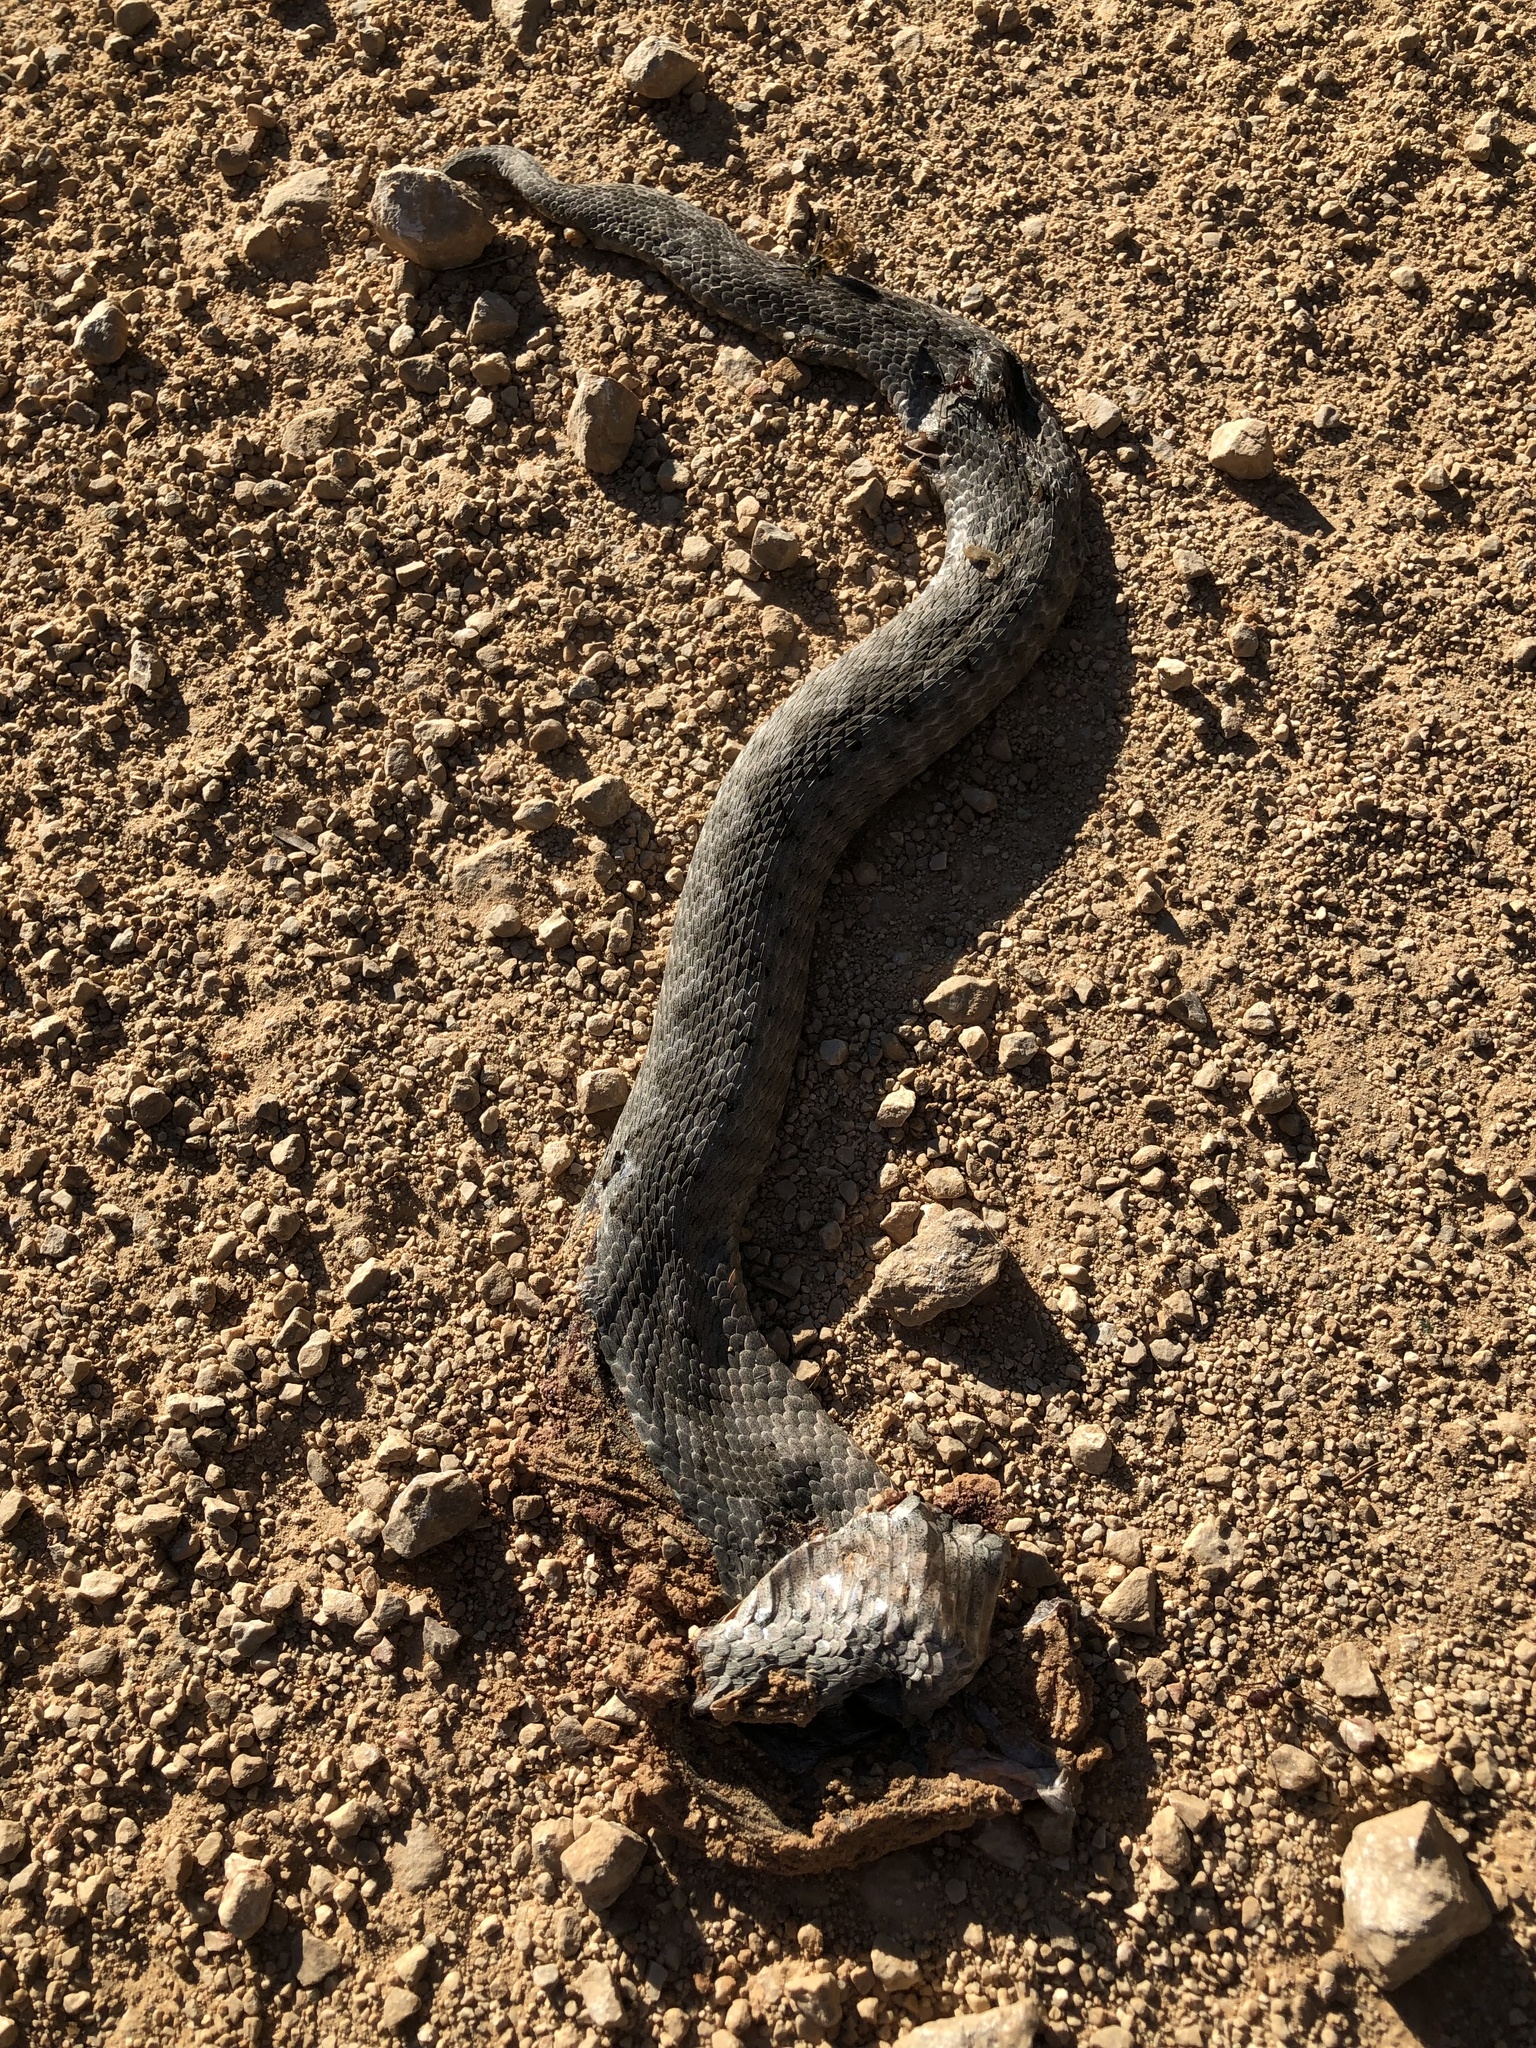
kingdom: Animalia
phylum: Chordata
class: Squamata
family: Viperidae
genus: Vipera
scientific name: Vipera ammodytes
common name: Sand viper
